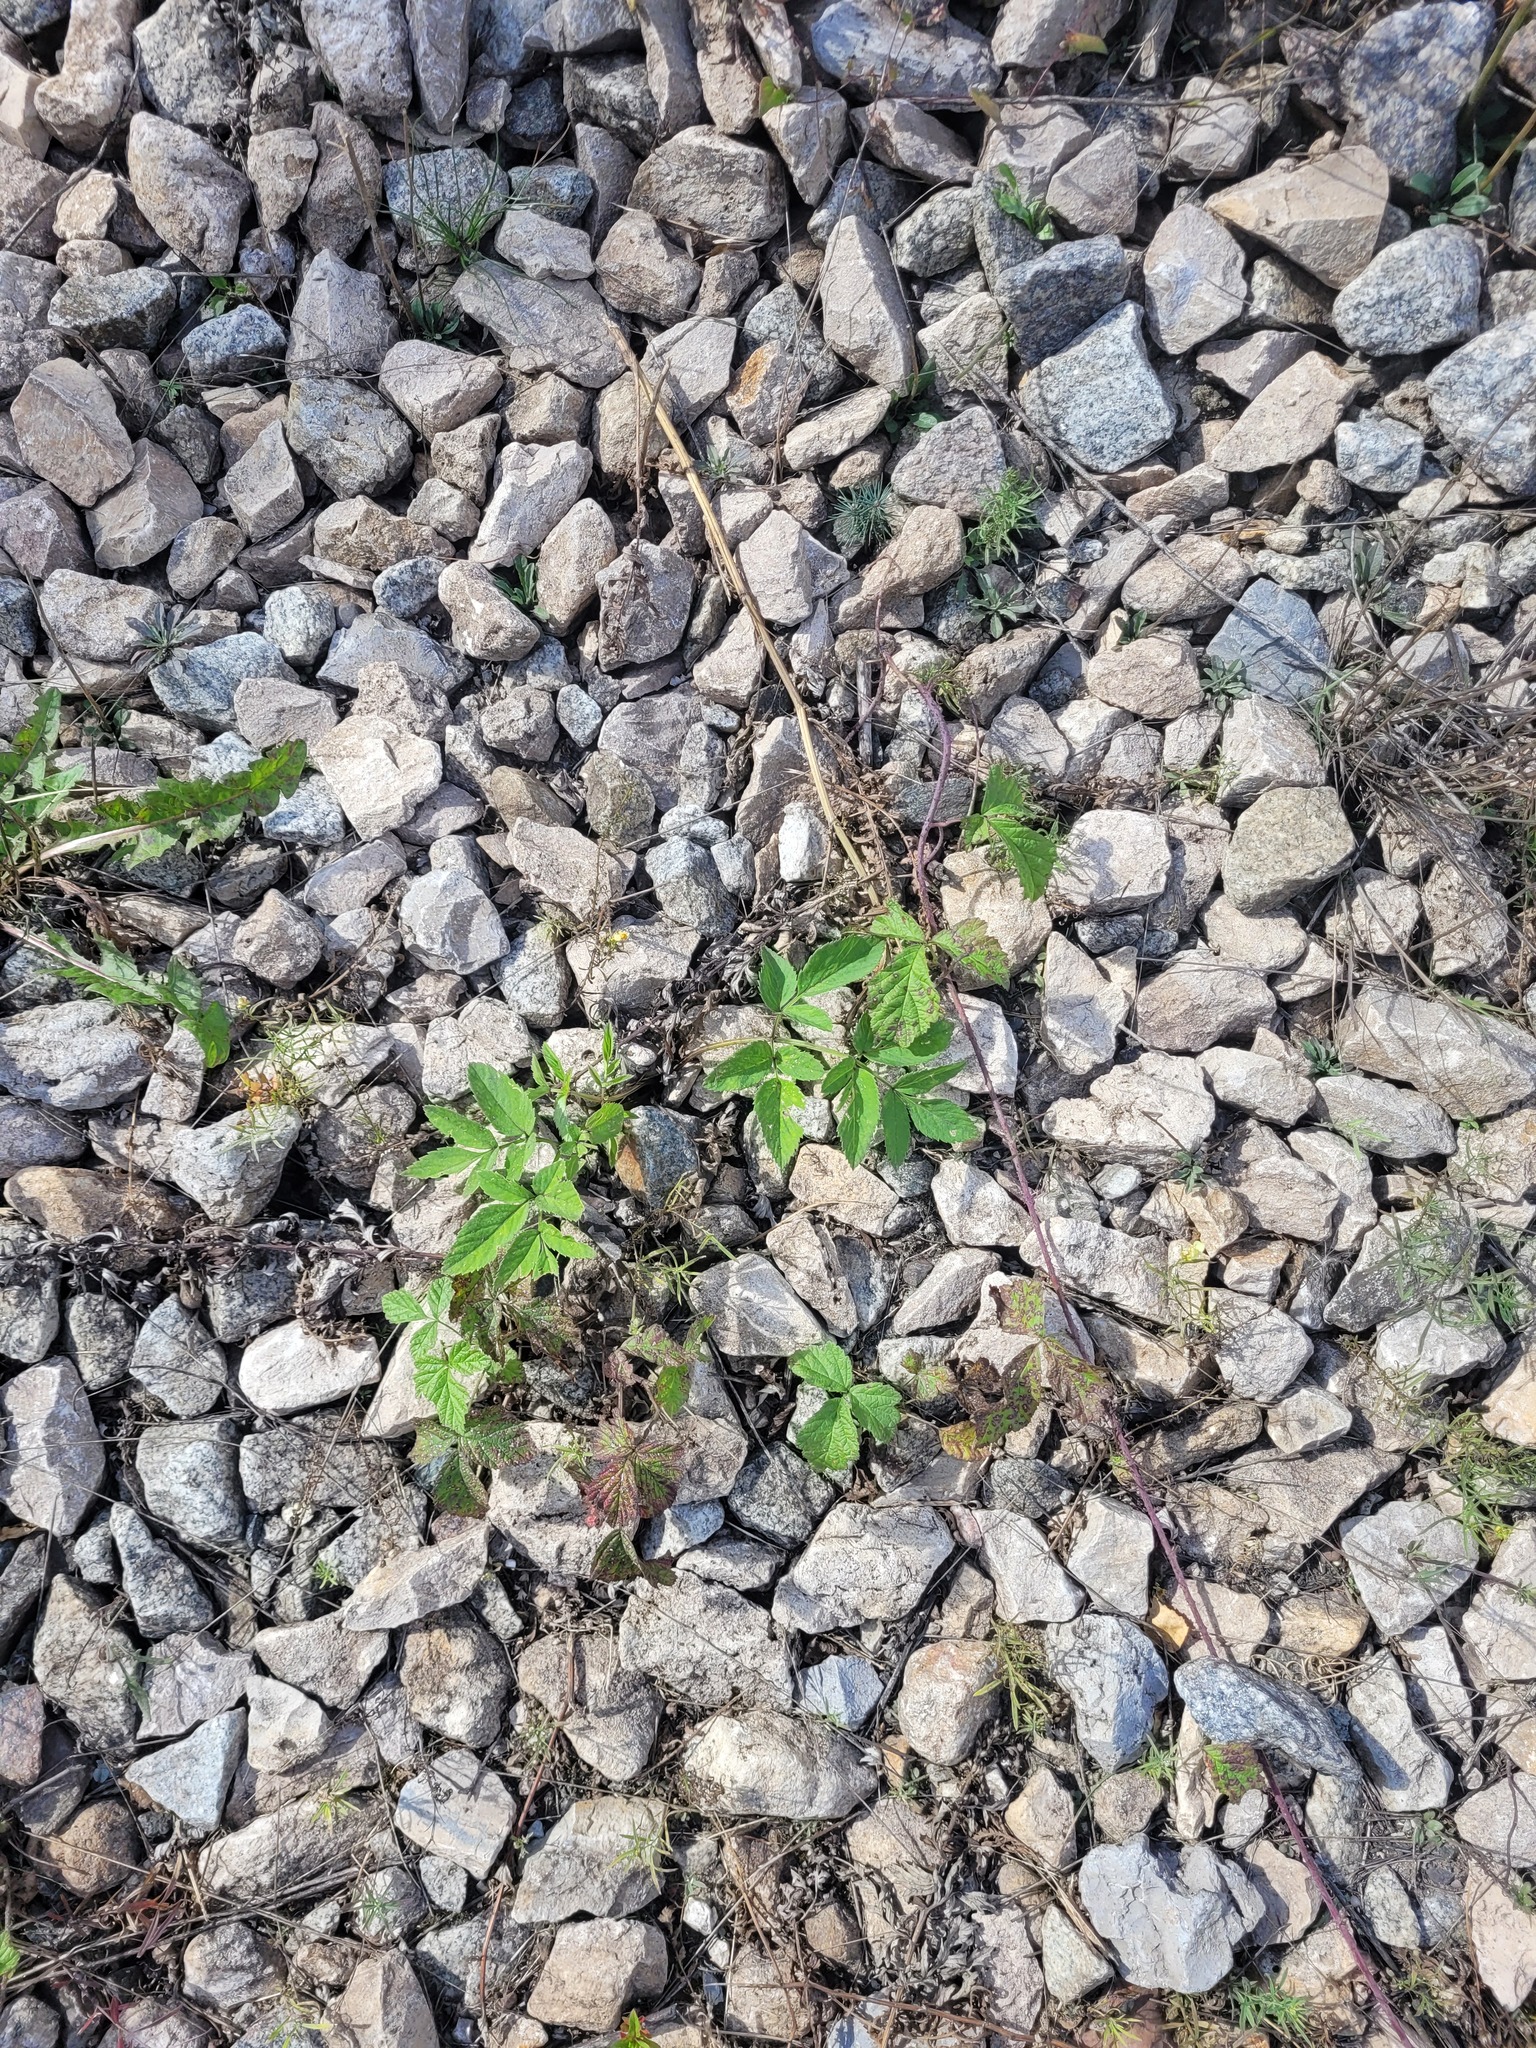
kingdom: Plantae
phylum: Tracheophyta
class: Magnoliopsida
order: Apiales
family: Apiaceae
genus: Angelica
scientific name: Angelica sylvestris
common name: Wild angelica
